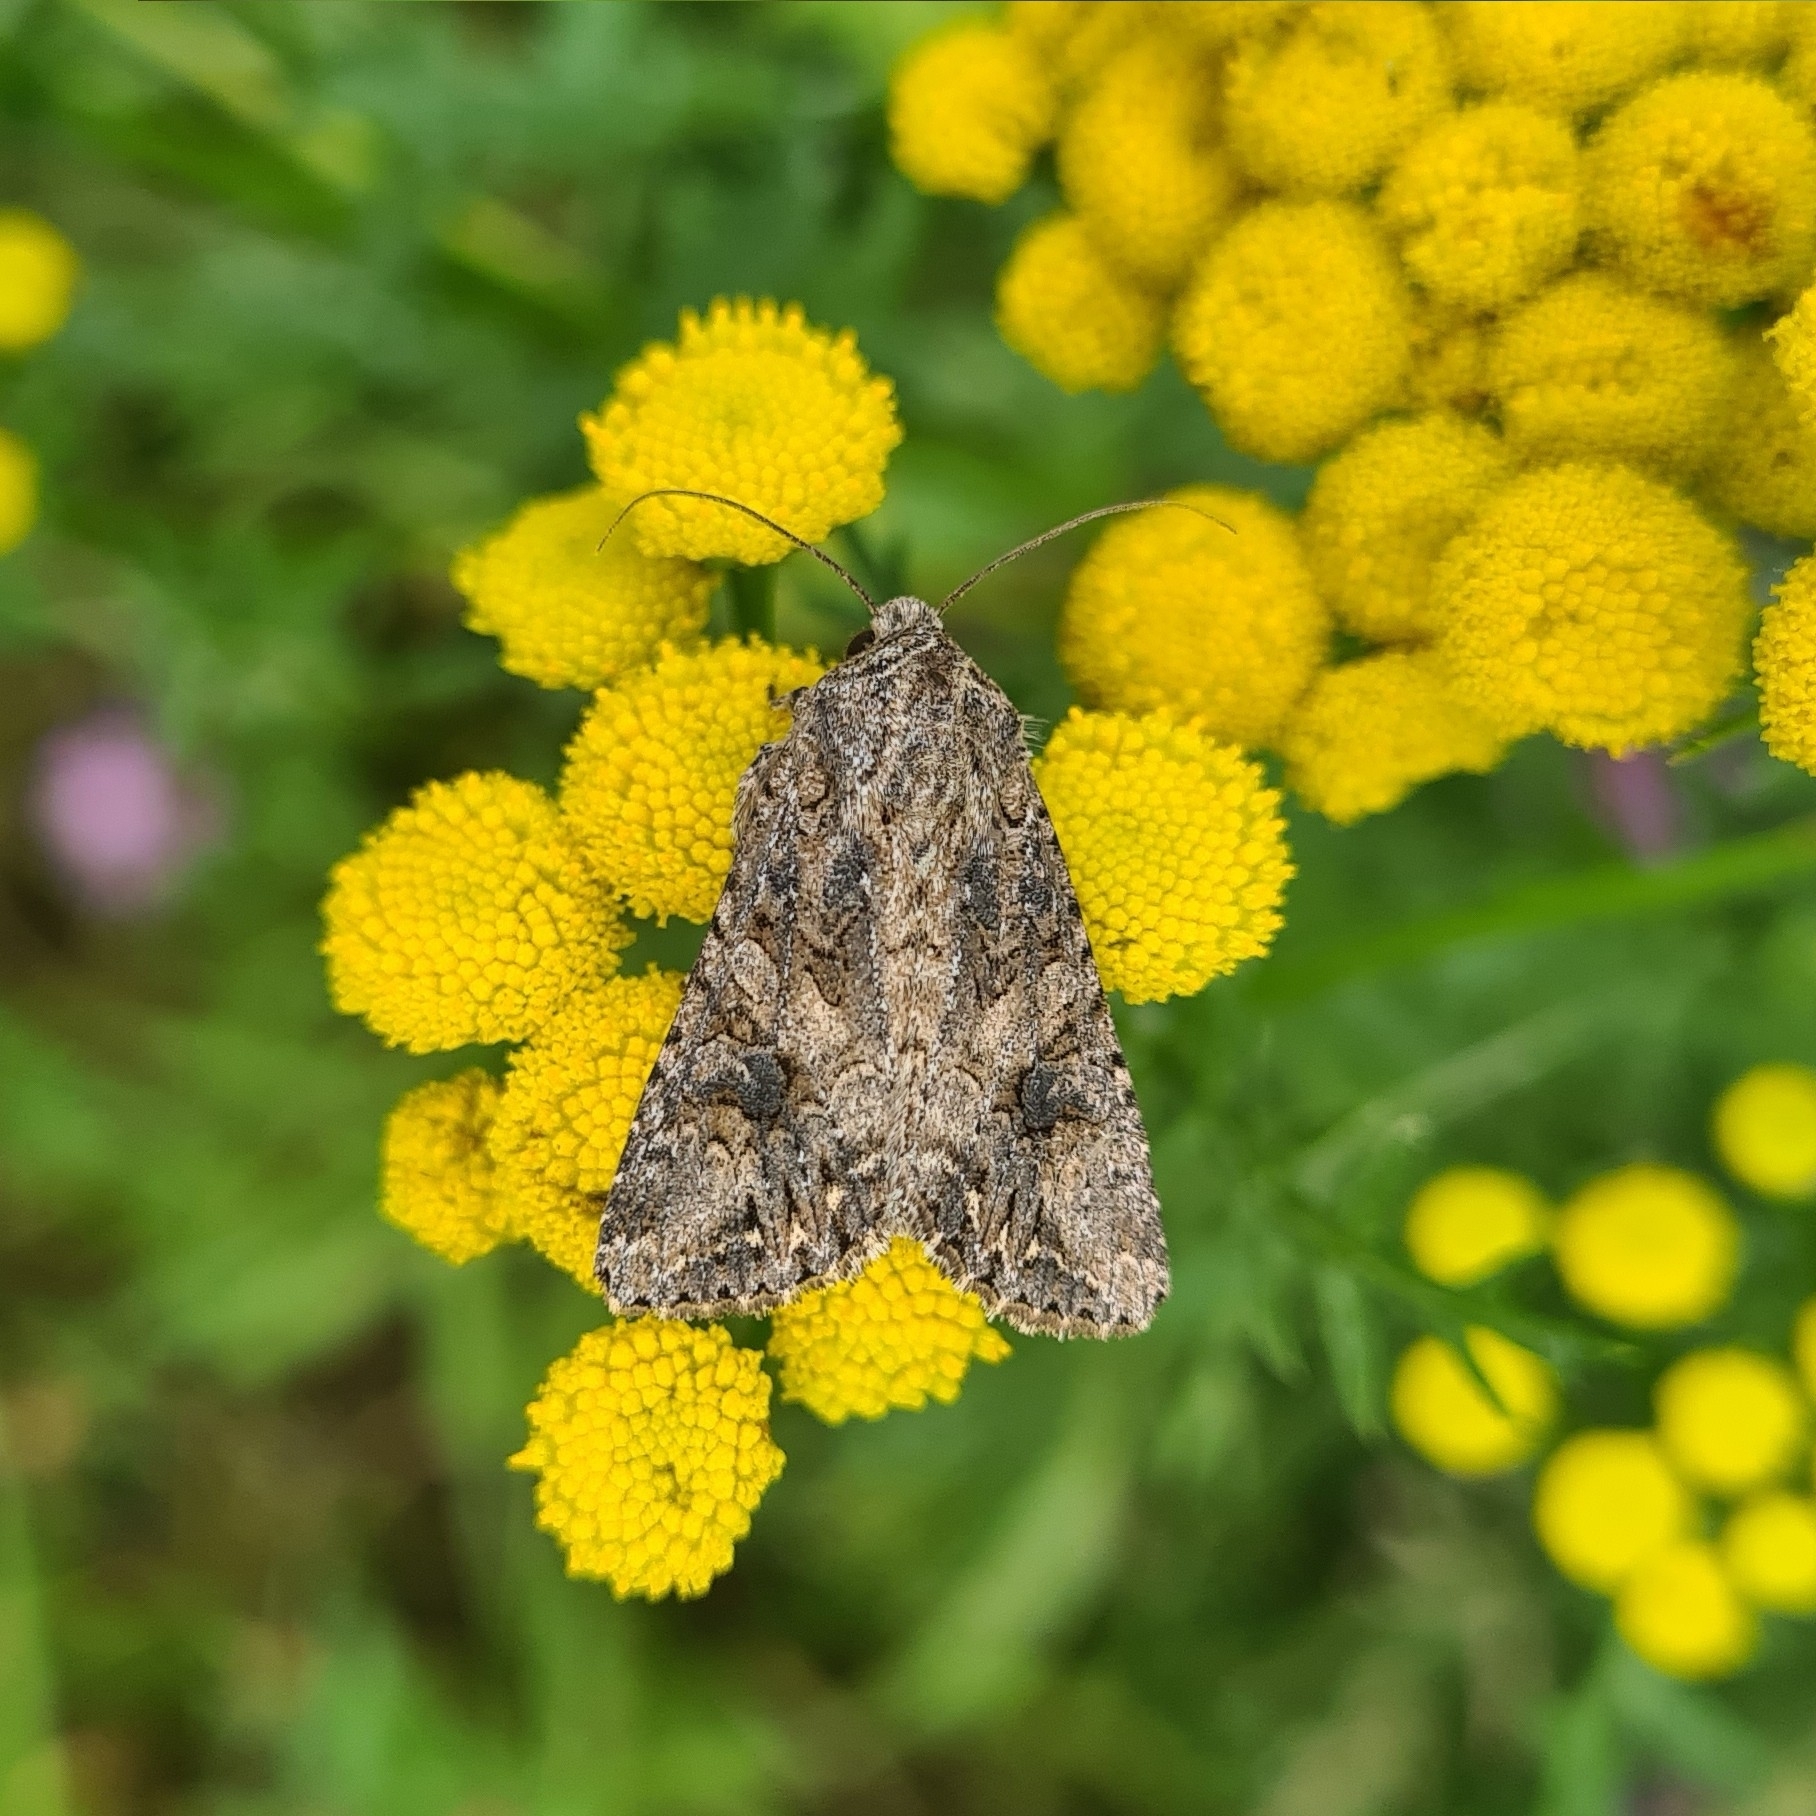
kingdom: Animalia
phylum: Arthropoda
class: Insecta
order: Lepidoptera
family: Noctuidae
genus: Anarta
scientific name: Anarta trifolii
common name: Clover cutworm moth
